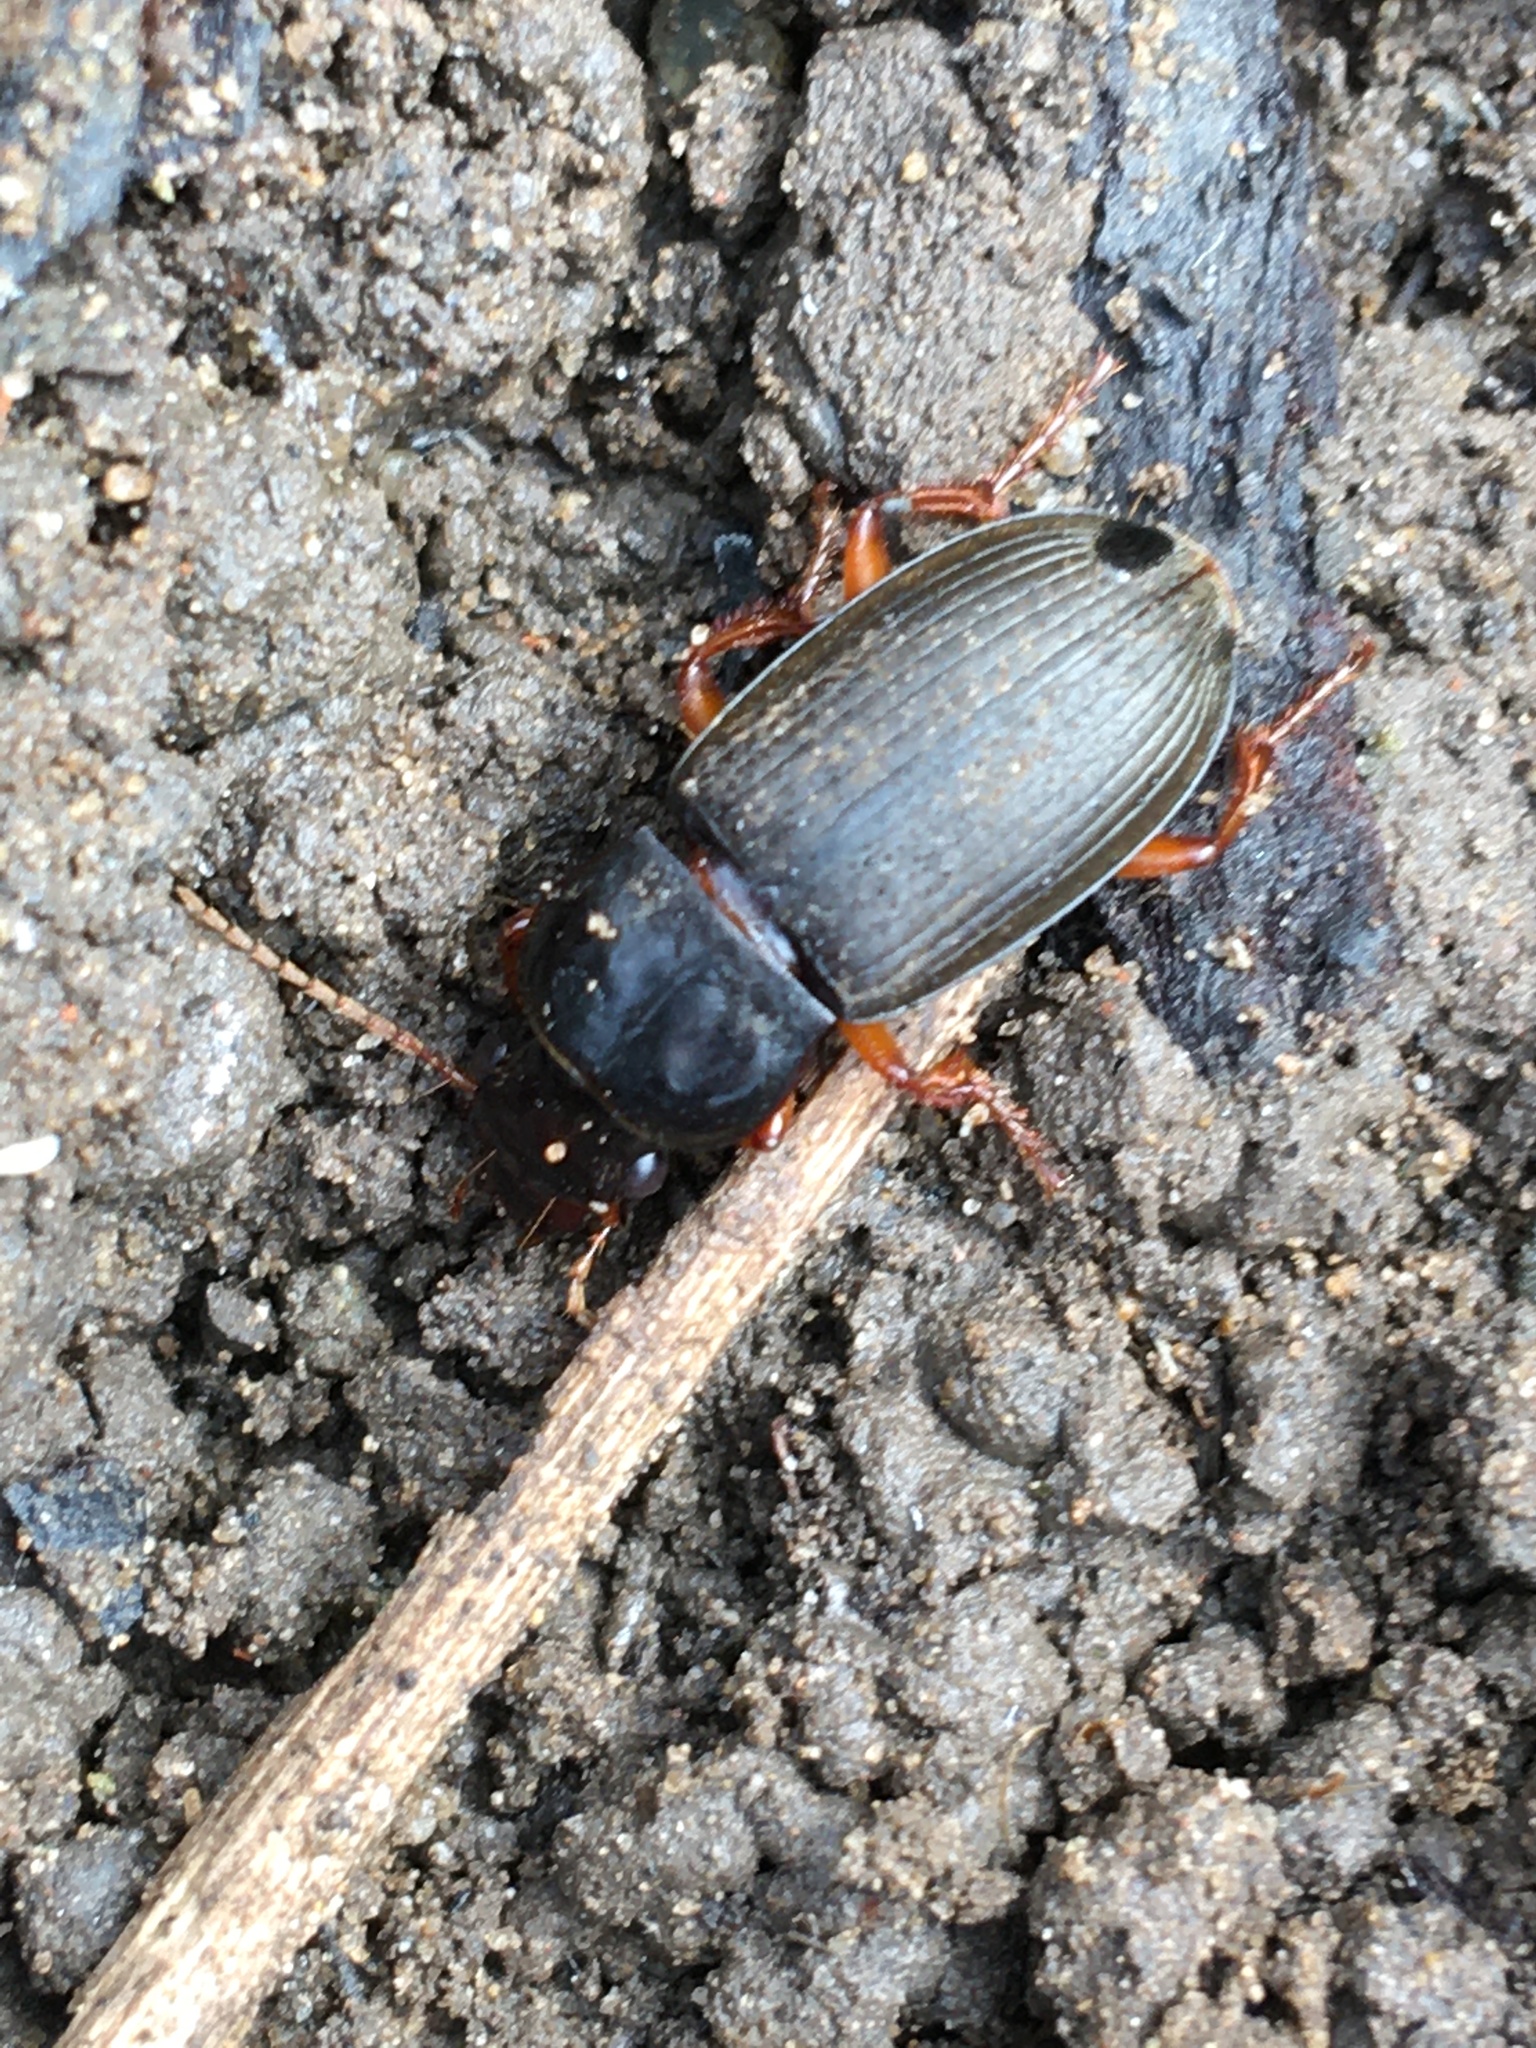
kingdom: Animalia
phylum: Arthropoda
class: Insecta
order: Coleoptera
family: Carabidae
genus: Harpalus
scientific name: Harpalus rufipes
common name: Strawberry harp ground beetle
